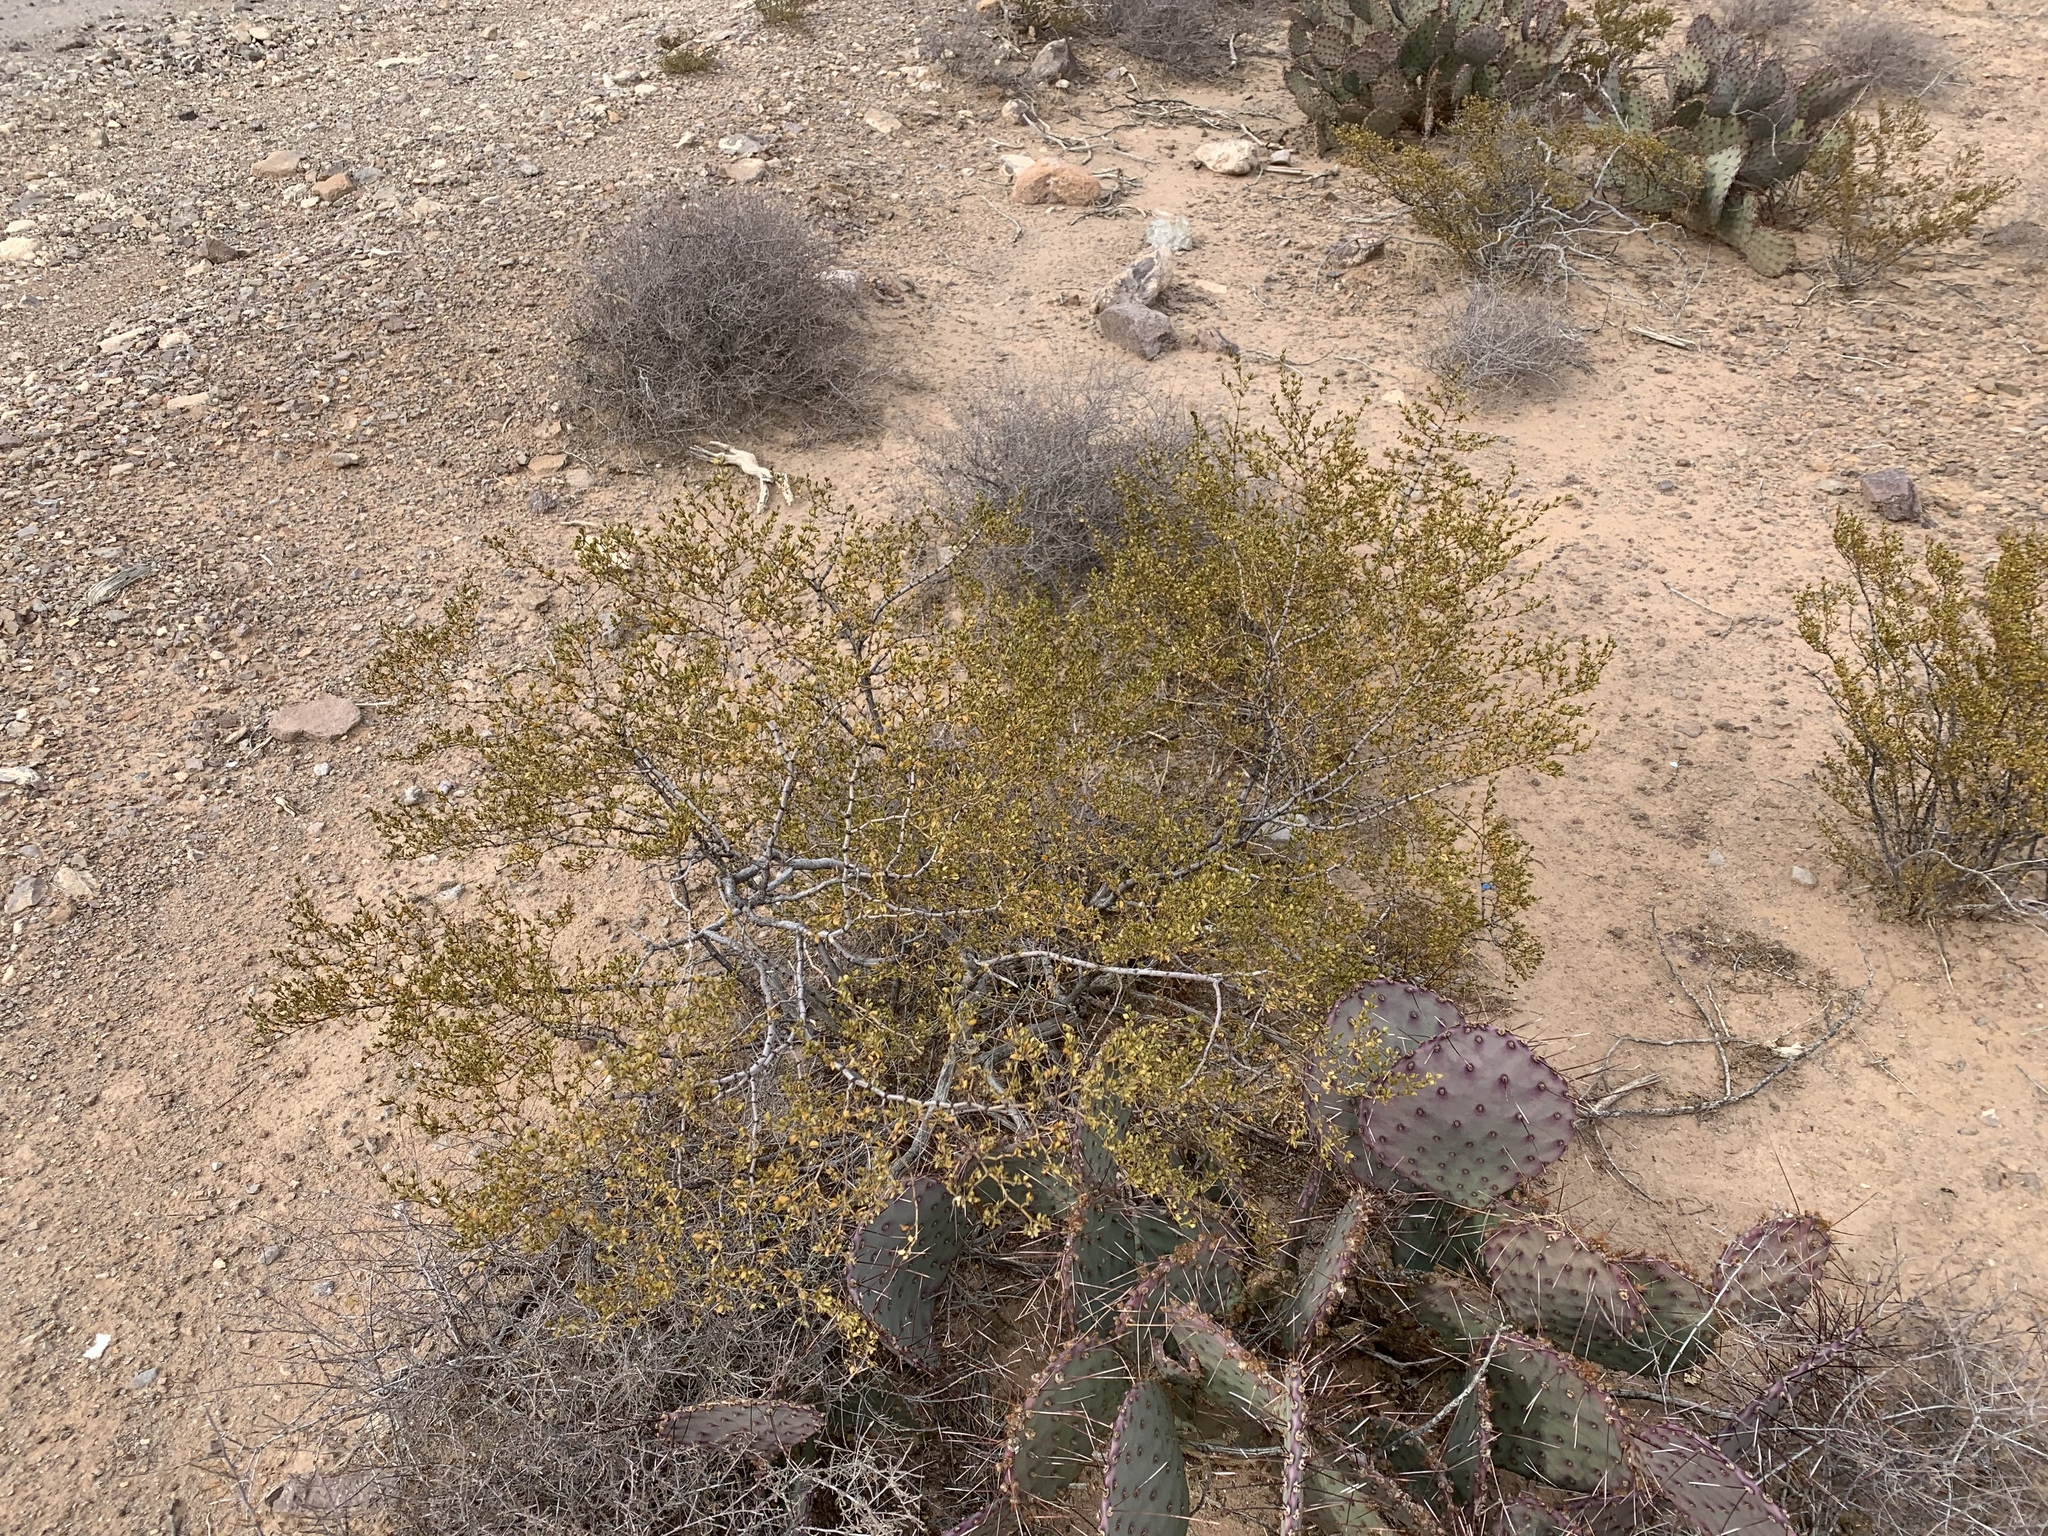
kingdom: Plantae
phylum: Tracheophyta
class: Magnoliopsida
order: Zygophyllales
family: Zygophyllaceae
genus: Larrea
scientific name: Larrea tridentata
